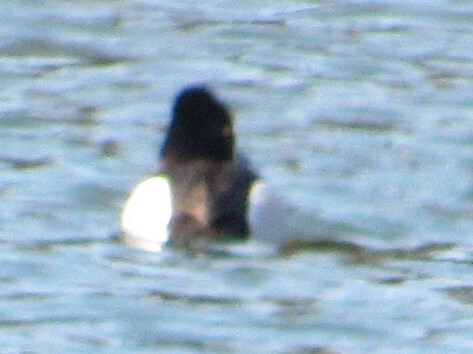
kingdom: Animalia
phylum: Chordata
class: Aves
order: Anseriformes
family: Anatidae
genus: Aythya
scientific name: Aythya collaris
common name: Ring-necked duck
